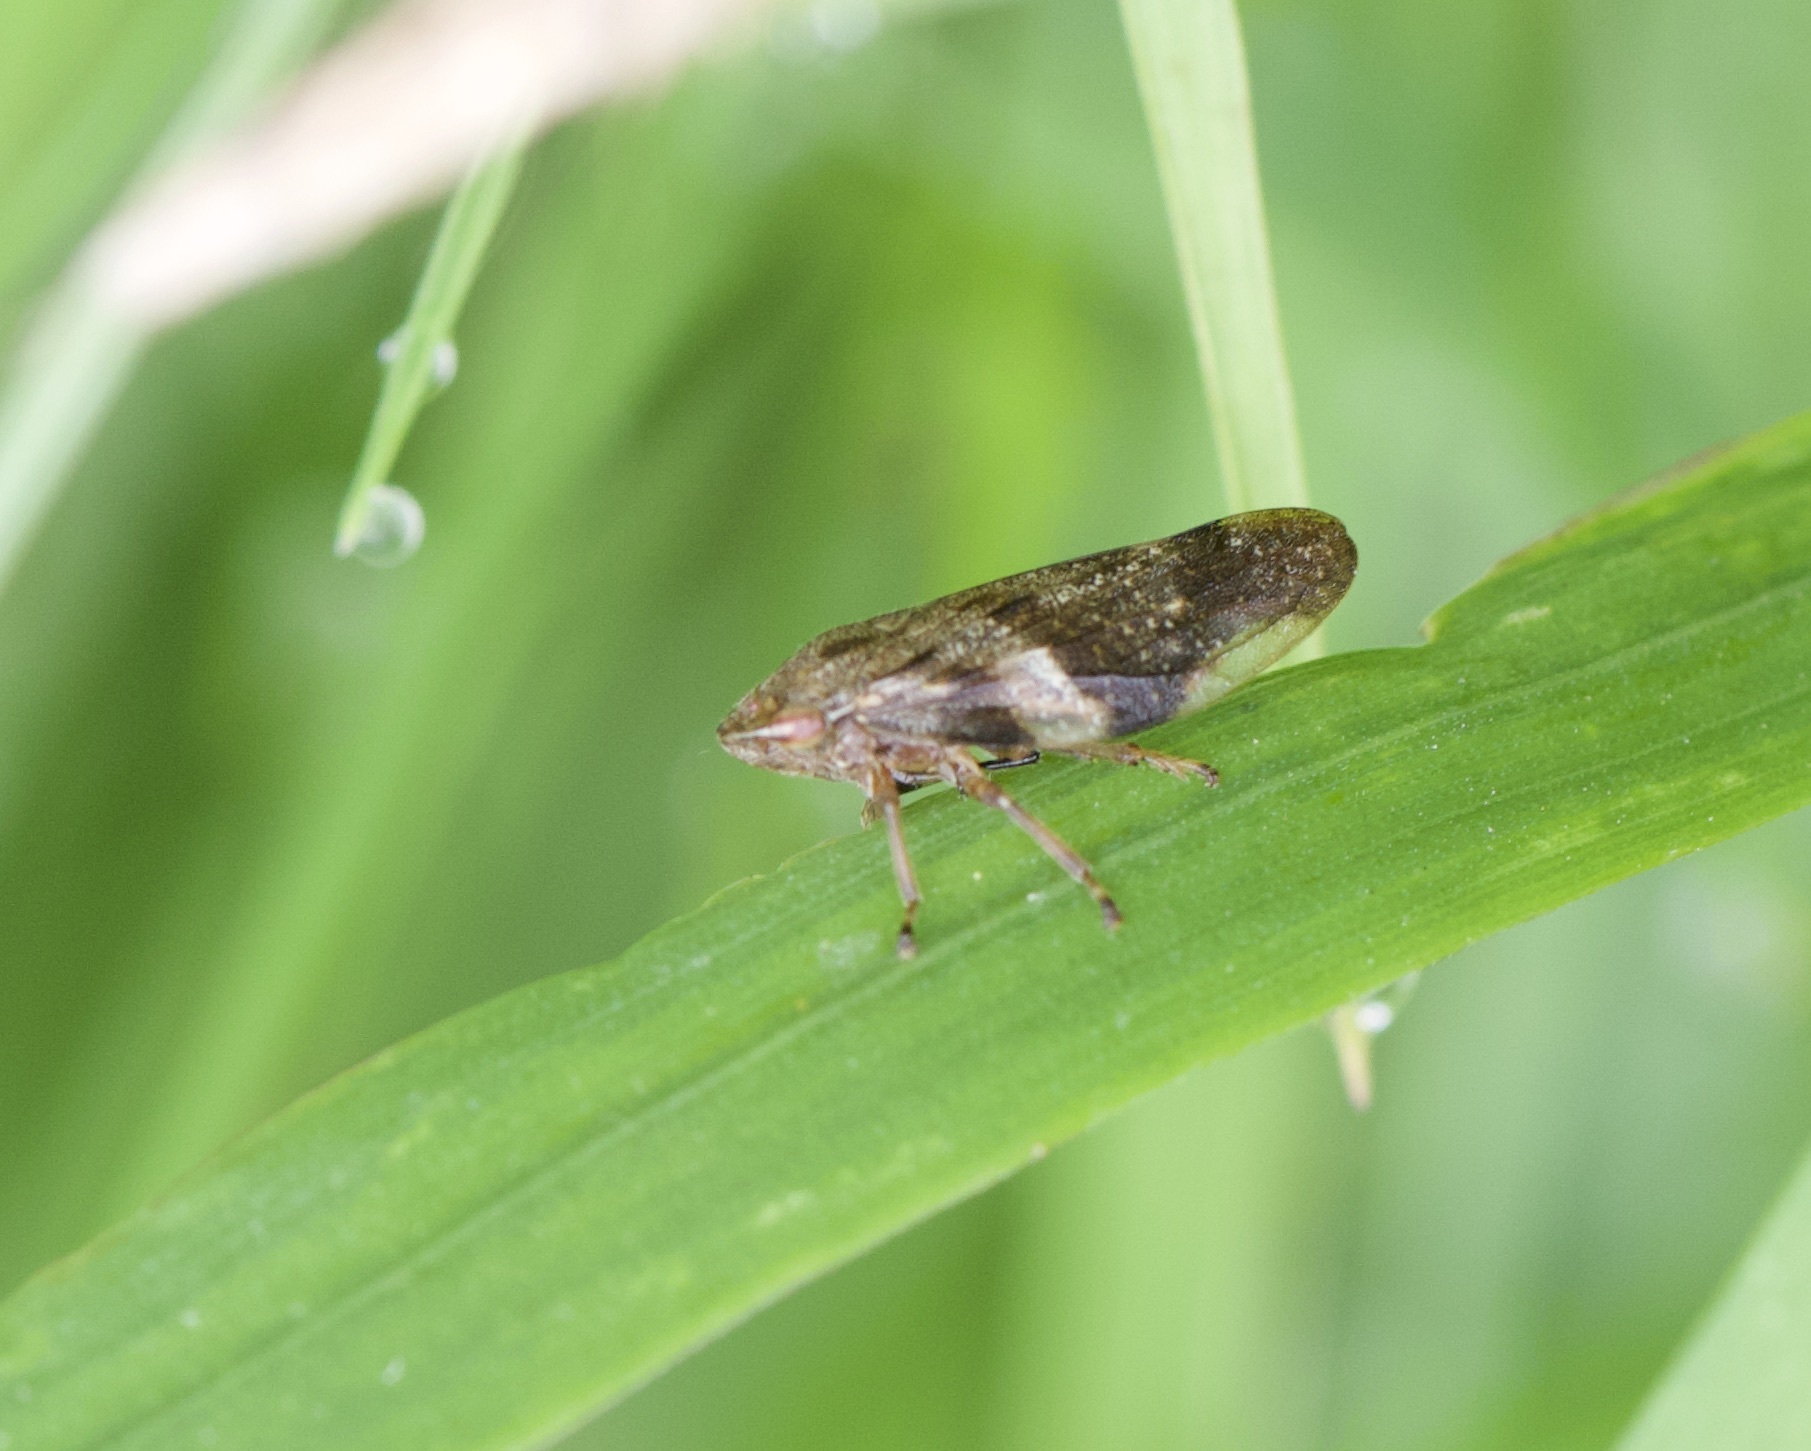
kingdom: Animalia
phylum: Arthropoda
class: Insecta
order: Hemiptera
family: Aphrophoridae
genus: Aphrophora
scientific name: Aphrophora alni
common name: European alder spittlebug
